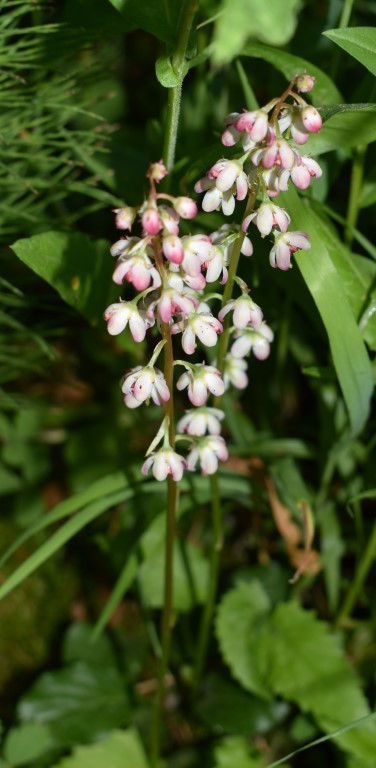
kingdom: Plantae
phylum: Tracheophyta
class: Magnoliopsida
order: Ericales
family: Ericaceae
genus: Pyrola
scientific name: Pyrola asarifolia
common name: Bog wintergreen
